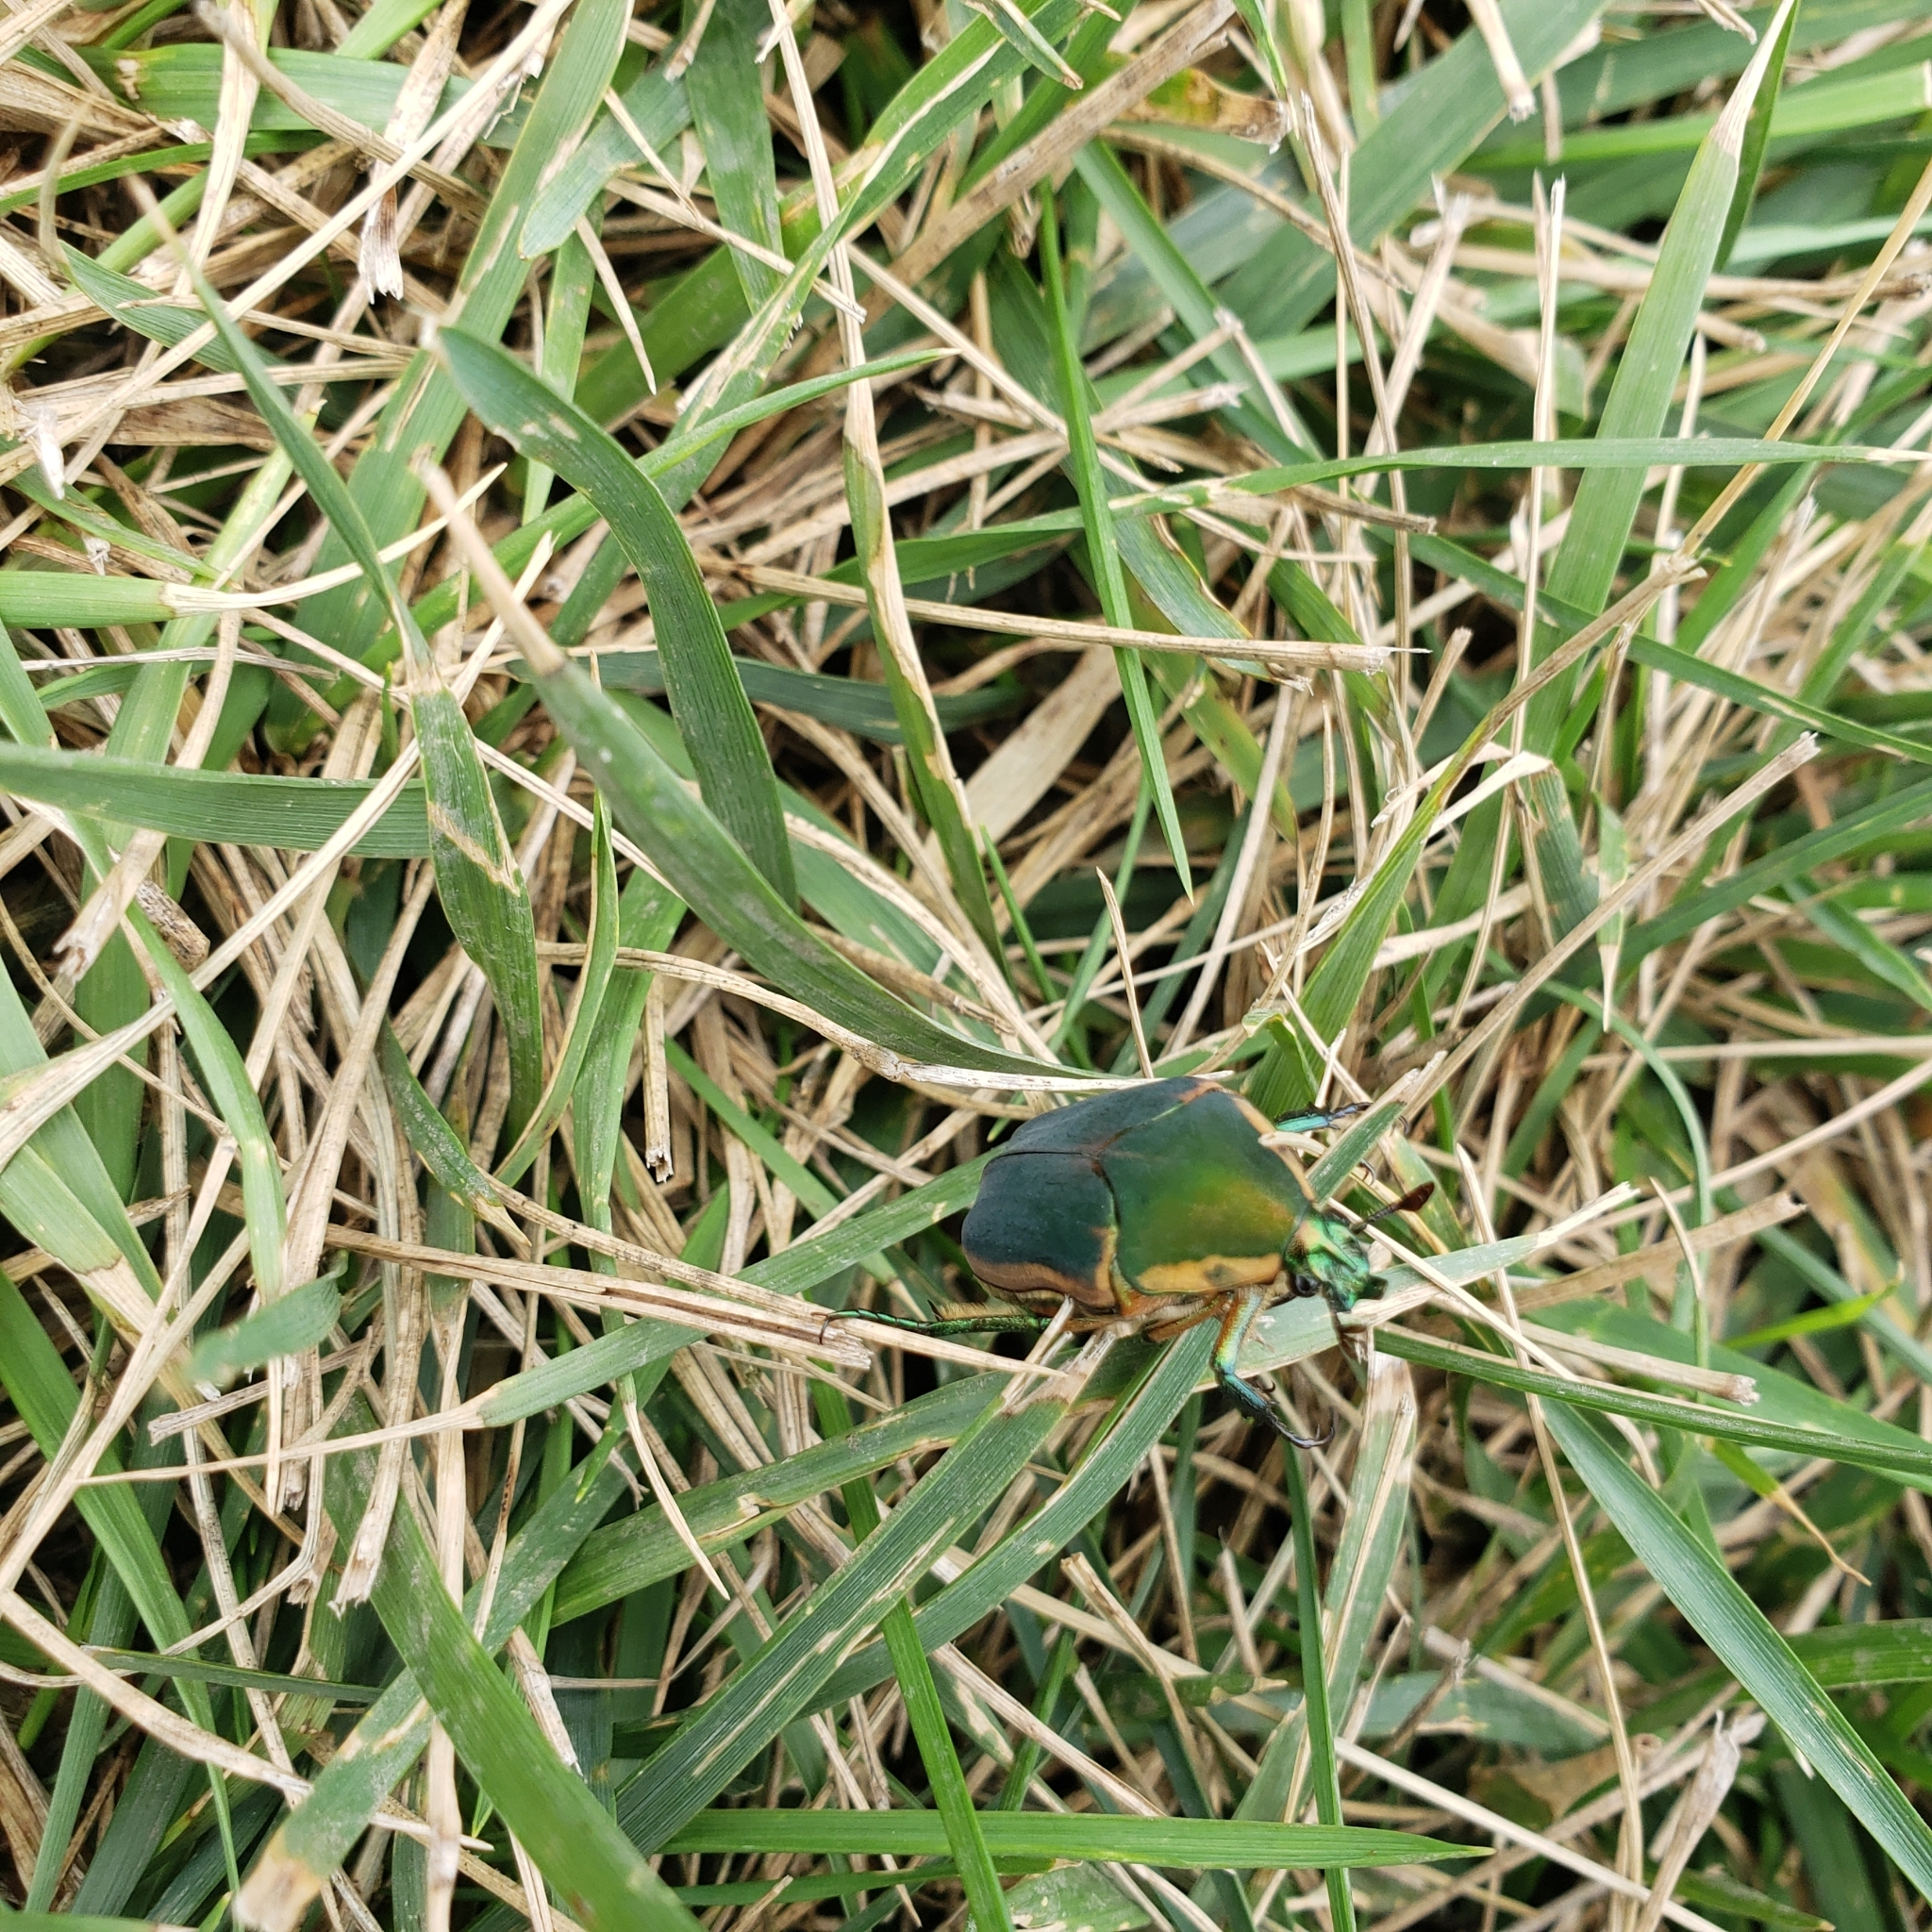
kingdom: Animalia
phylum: Arthropoda
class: Insecta
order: Coleoptera
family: Scarabaeidae
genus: Cotinis
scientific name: Cotinis nitida
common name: Common green june beetle
